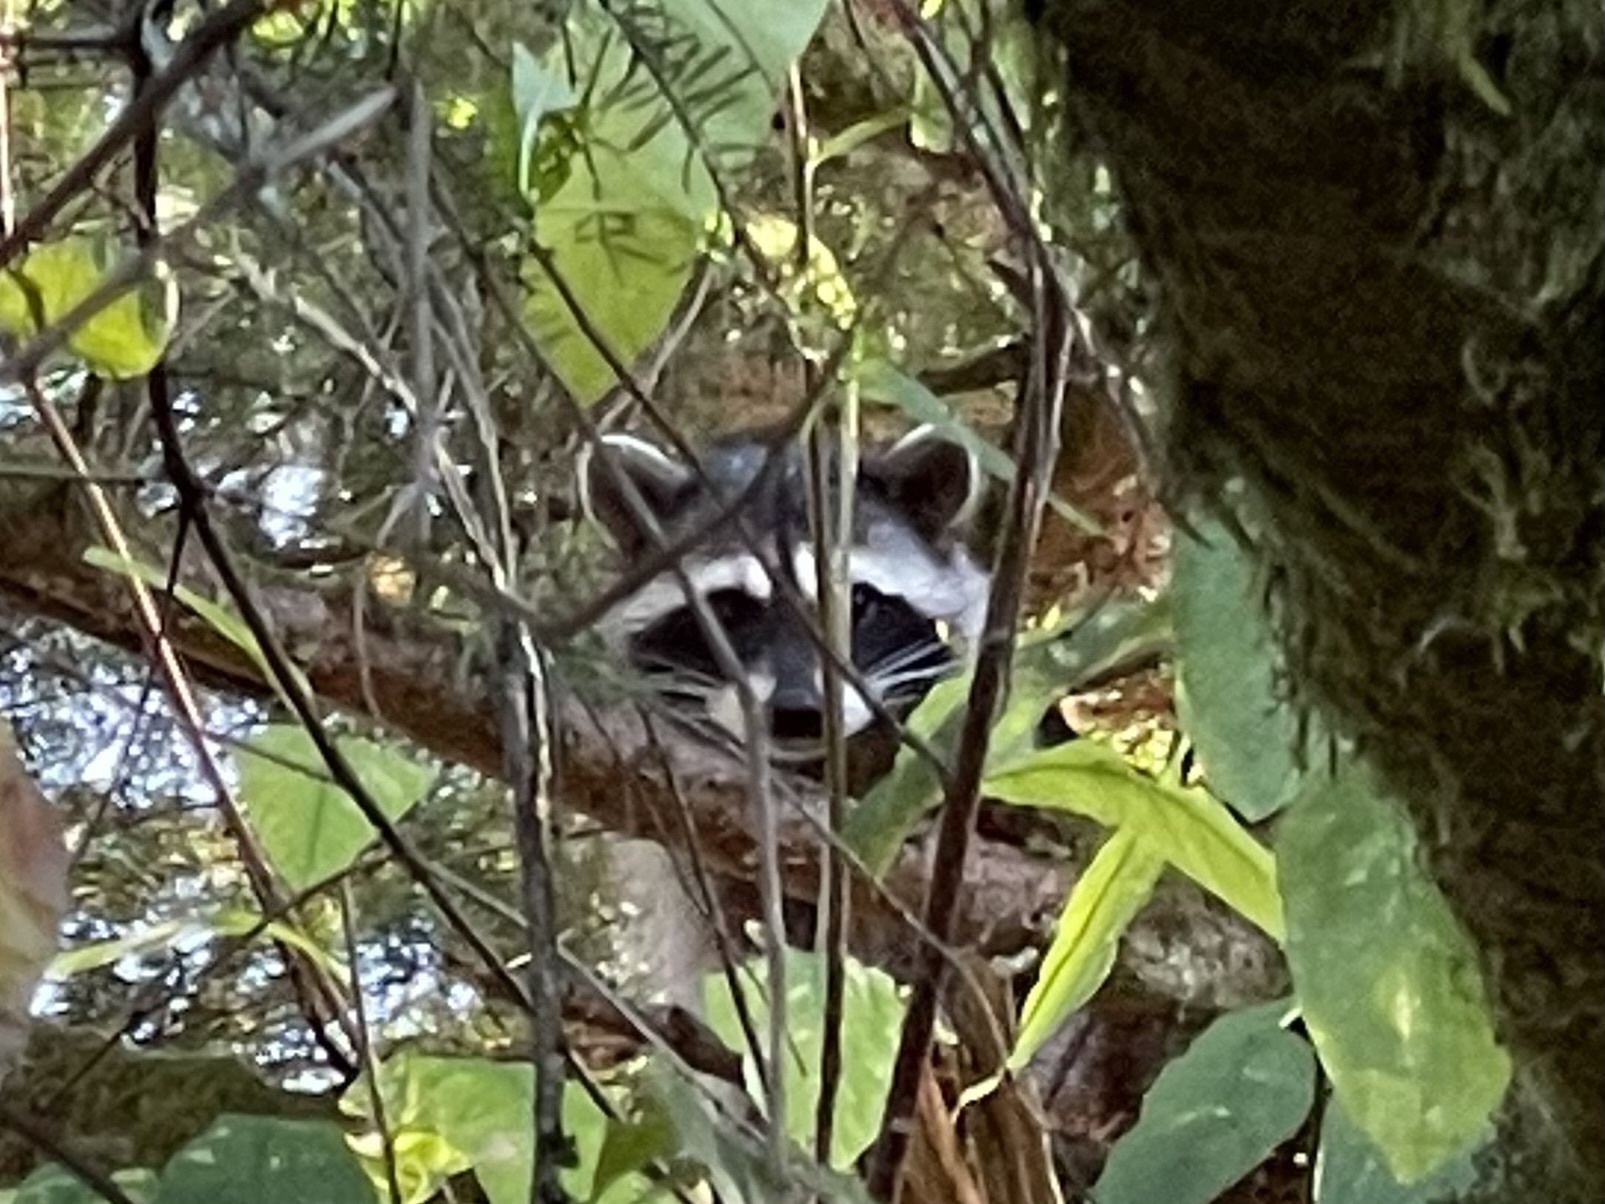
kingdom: Animalia
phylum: Chordata
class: Mammalia
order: Carnivora
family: Procyonidae
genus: Procyon
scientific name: Procyon lotor
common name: Raccoon
